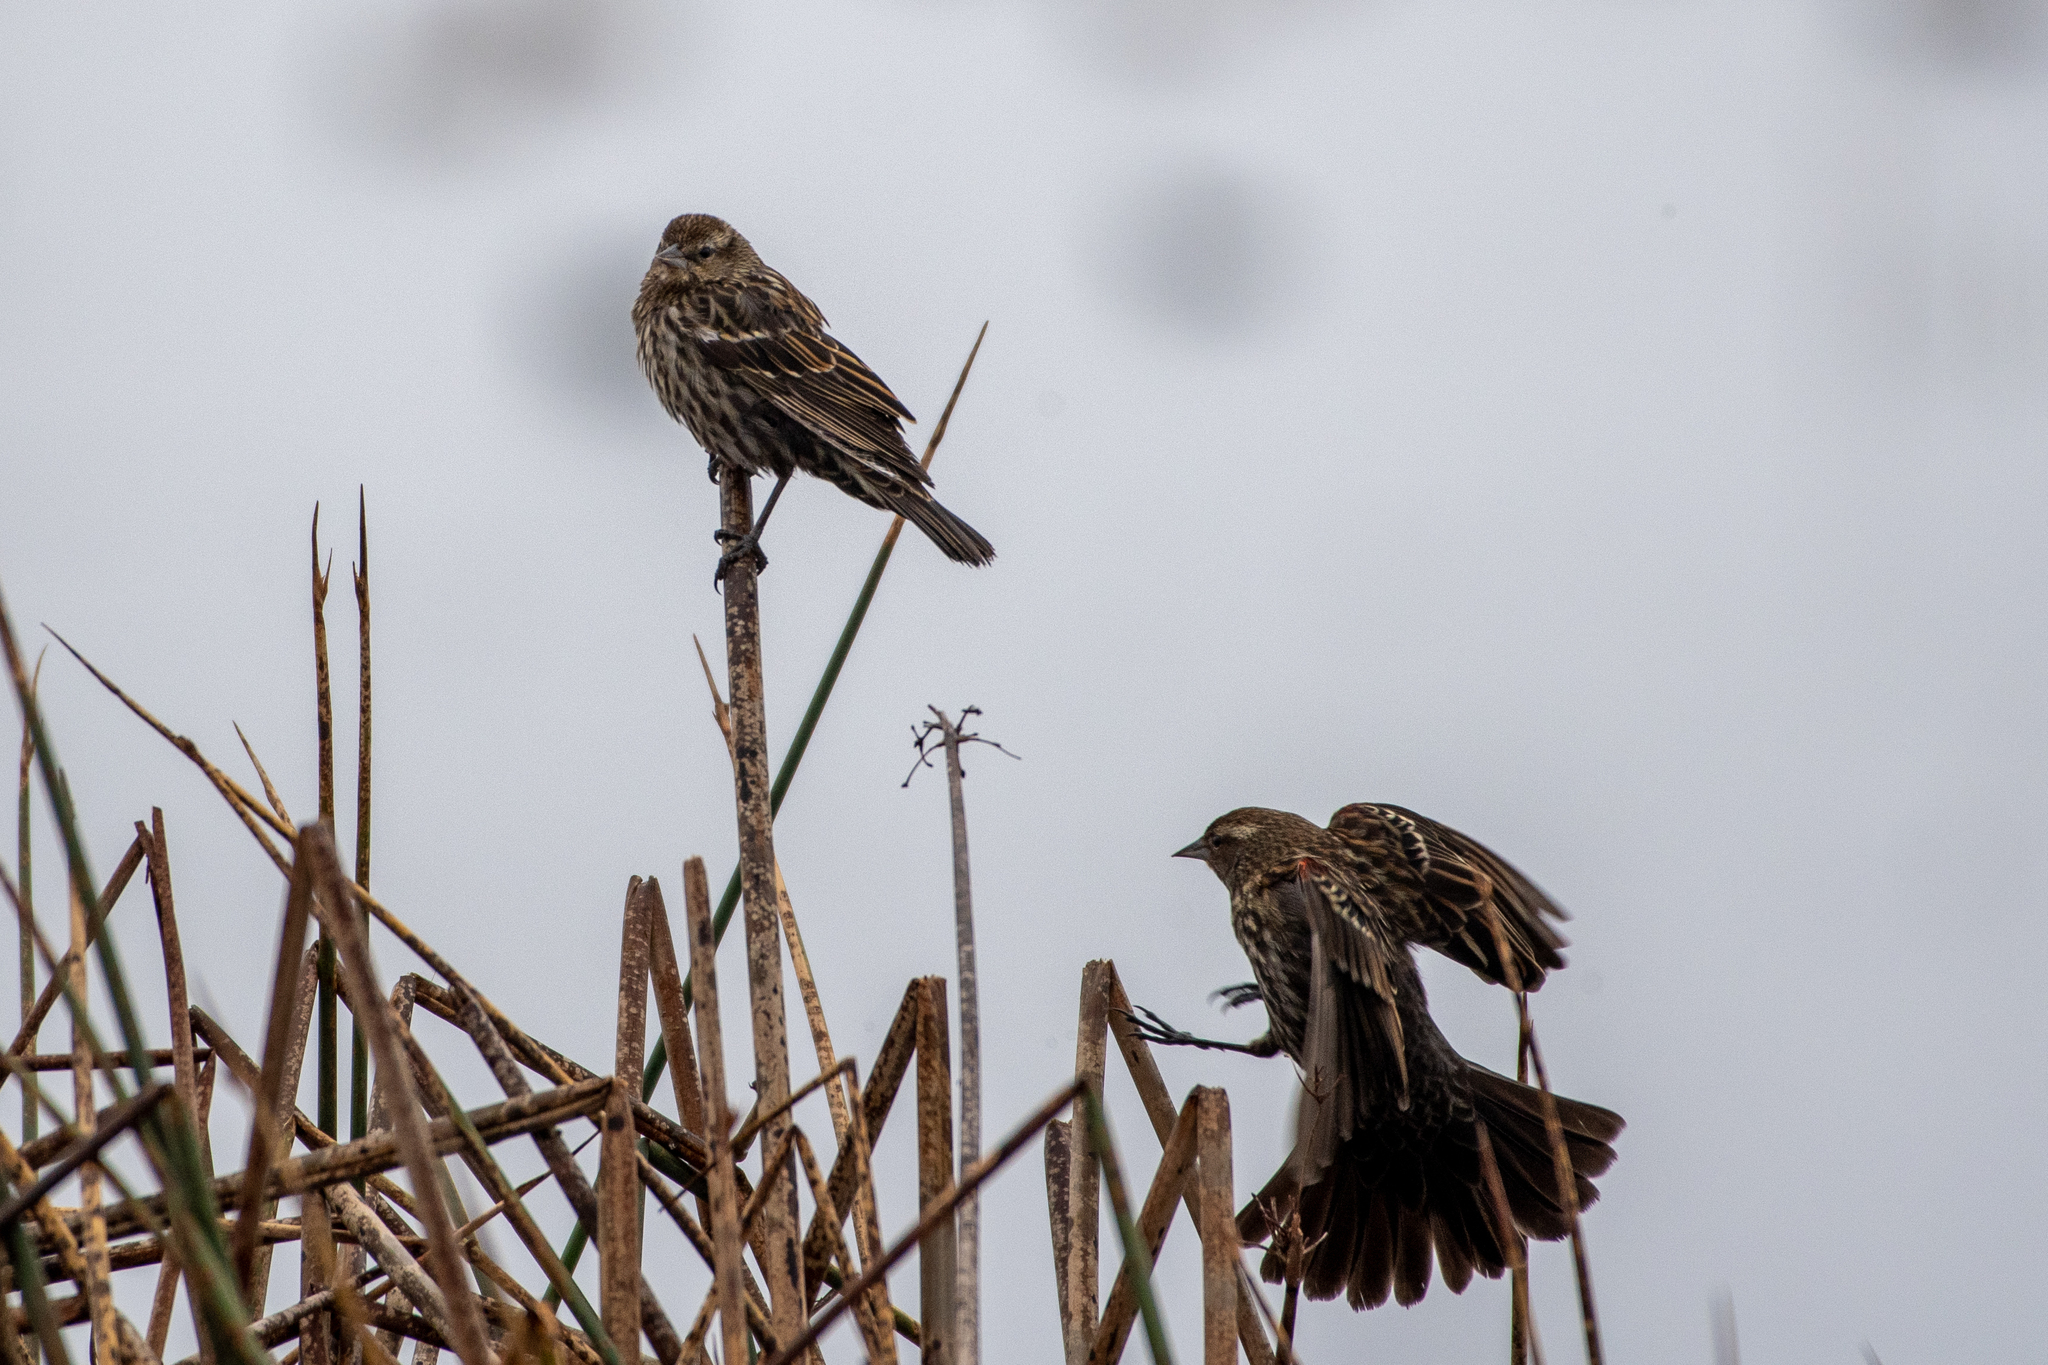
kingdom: Animalia
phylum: Chordata
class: Aves
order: Passeriformes
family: Icteridae
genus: Agelaius
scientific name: Agelaius phoeniceus
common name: Red-winged blackbird
